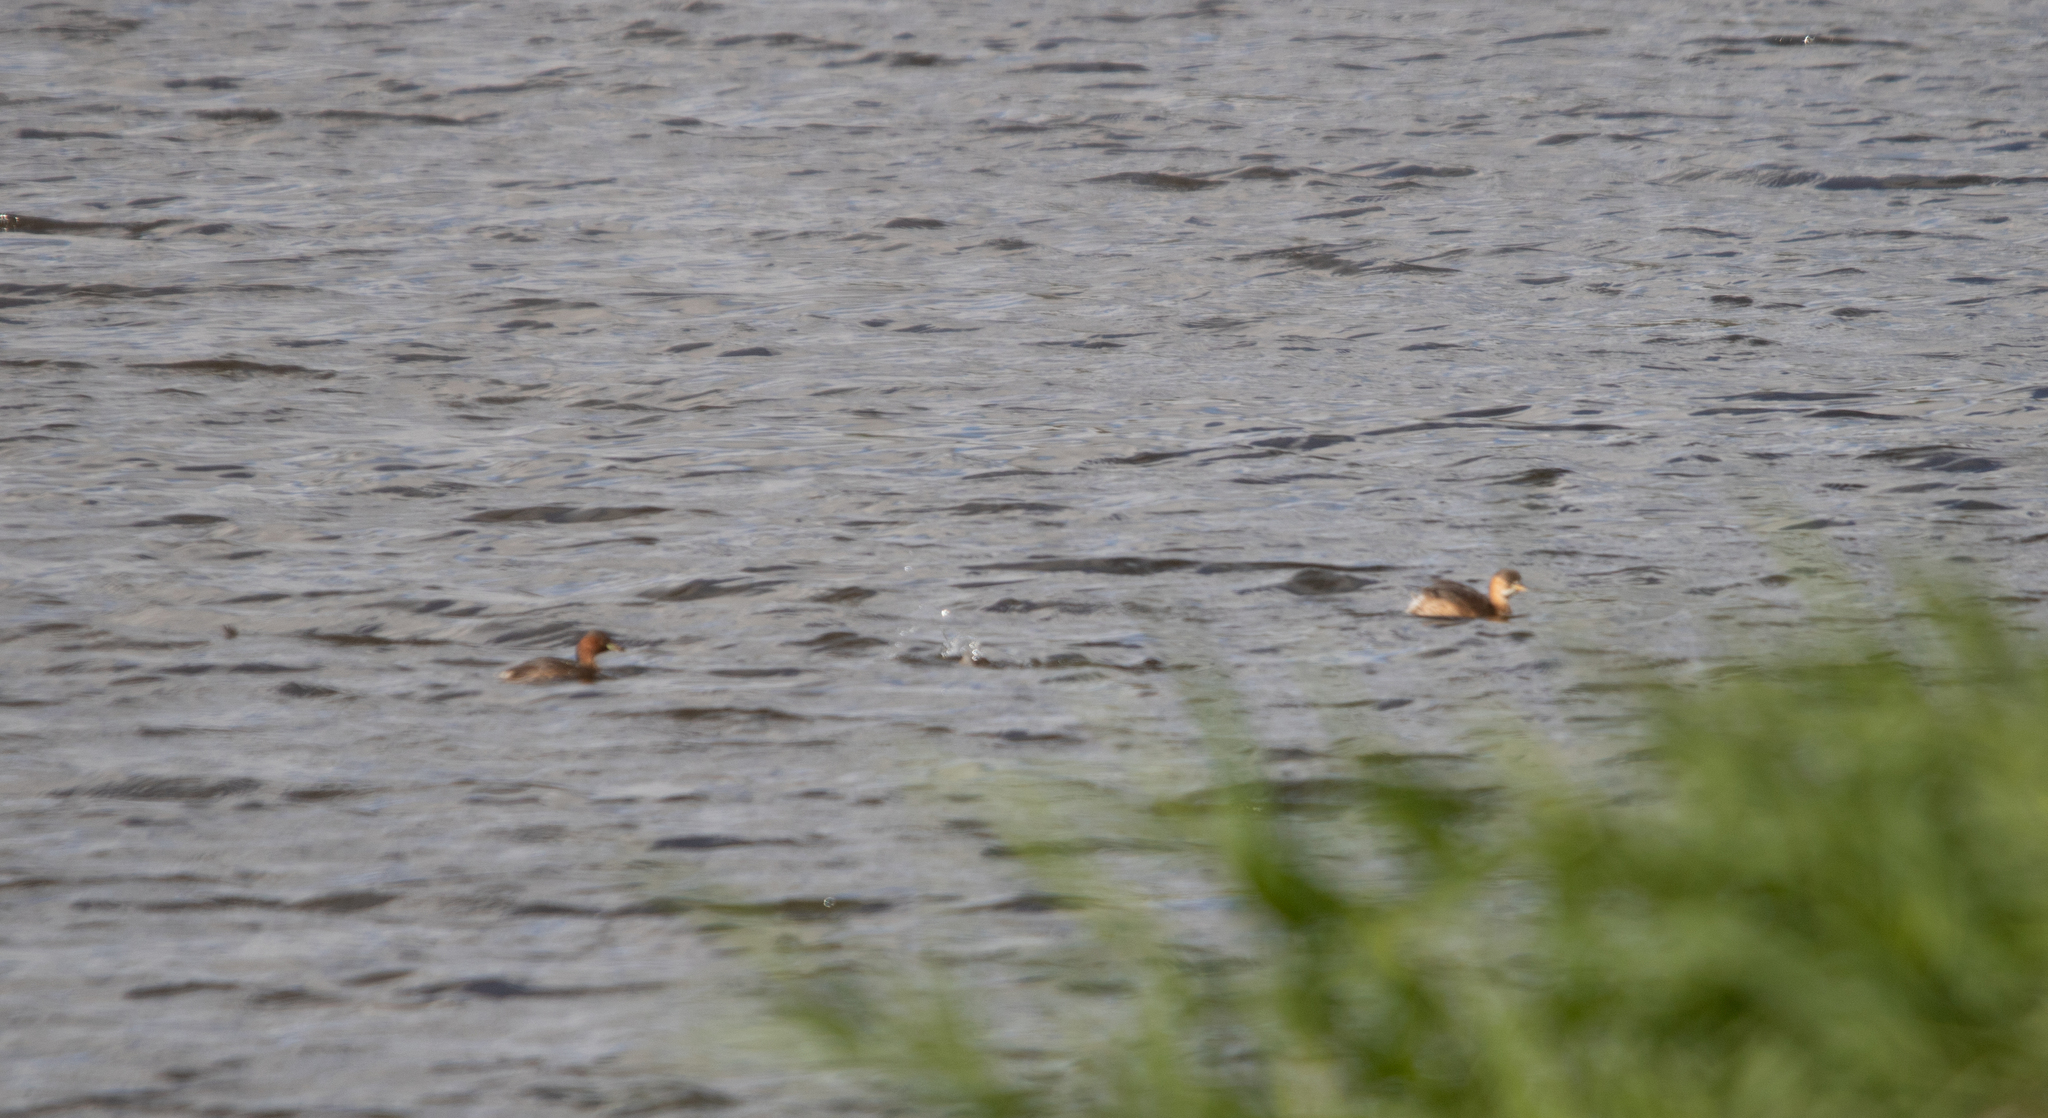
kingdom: Animalia
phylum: Chordata
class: Aves
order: Podicipediformes
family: Podicipedidae
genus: Tachybaptus
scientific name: Tachybaptus ruficollis
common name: Little grebe
